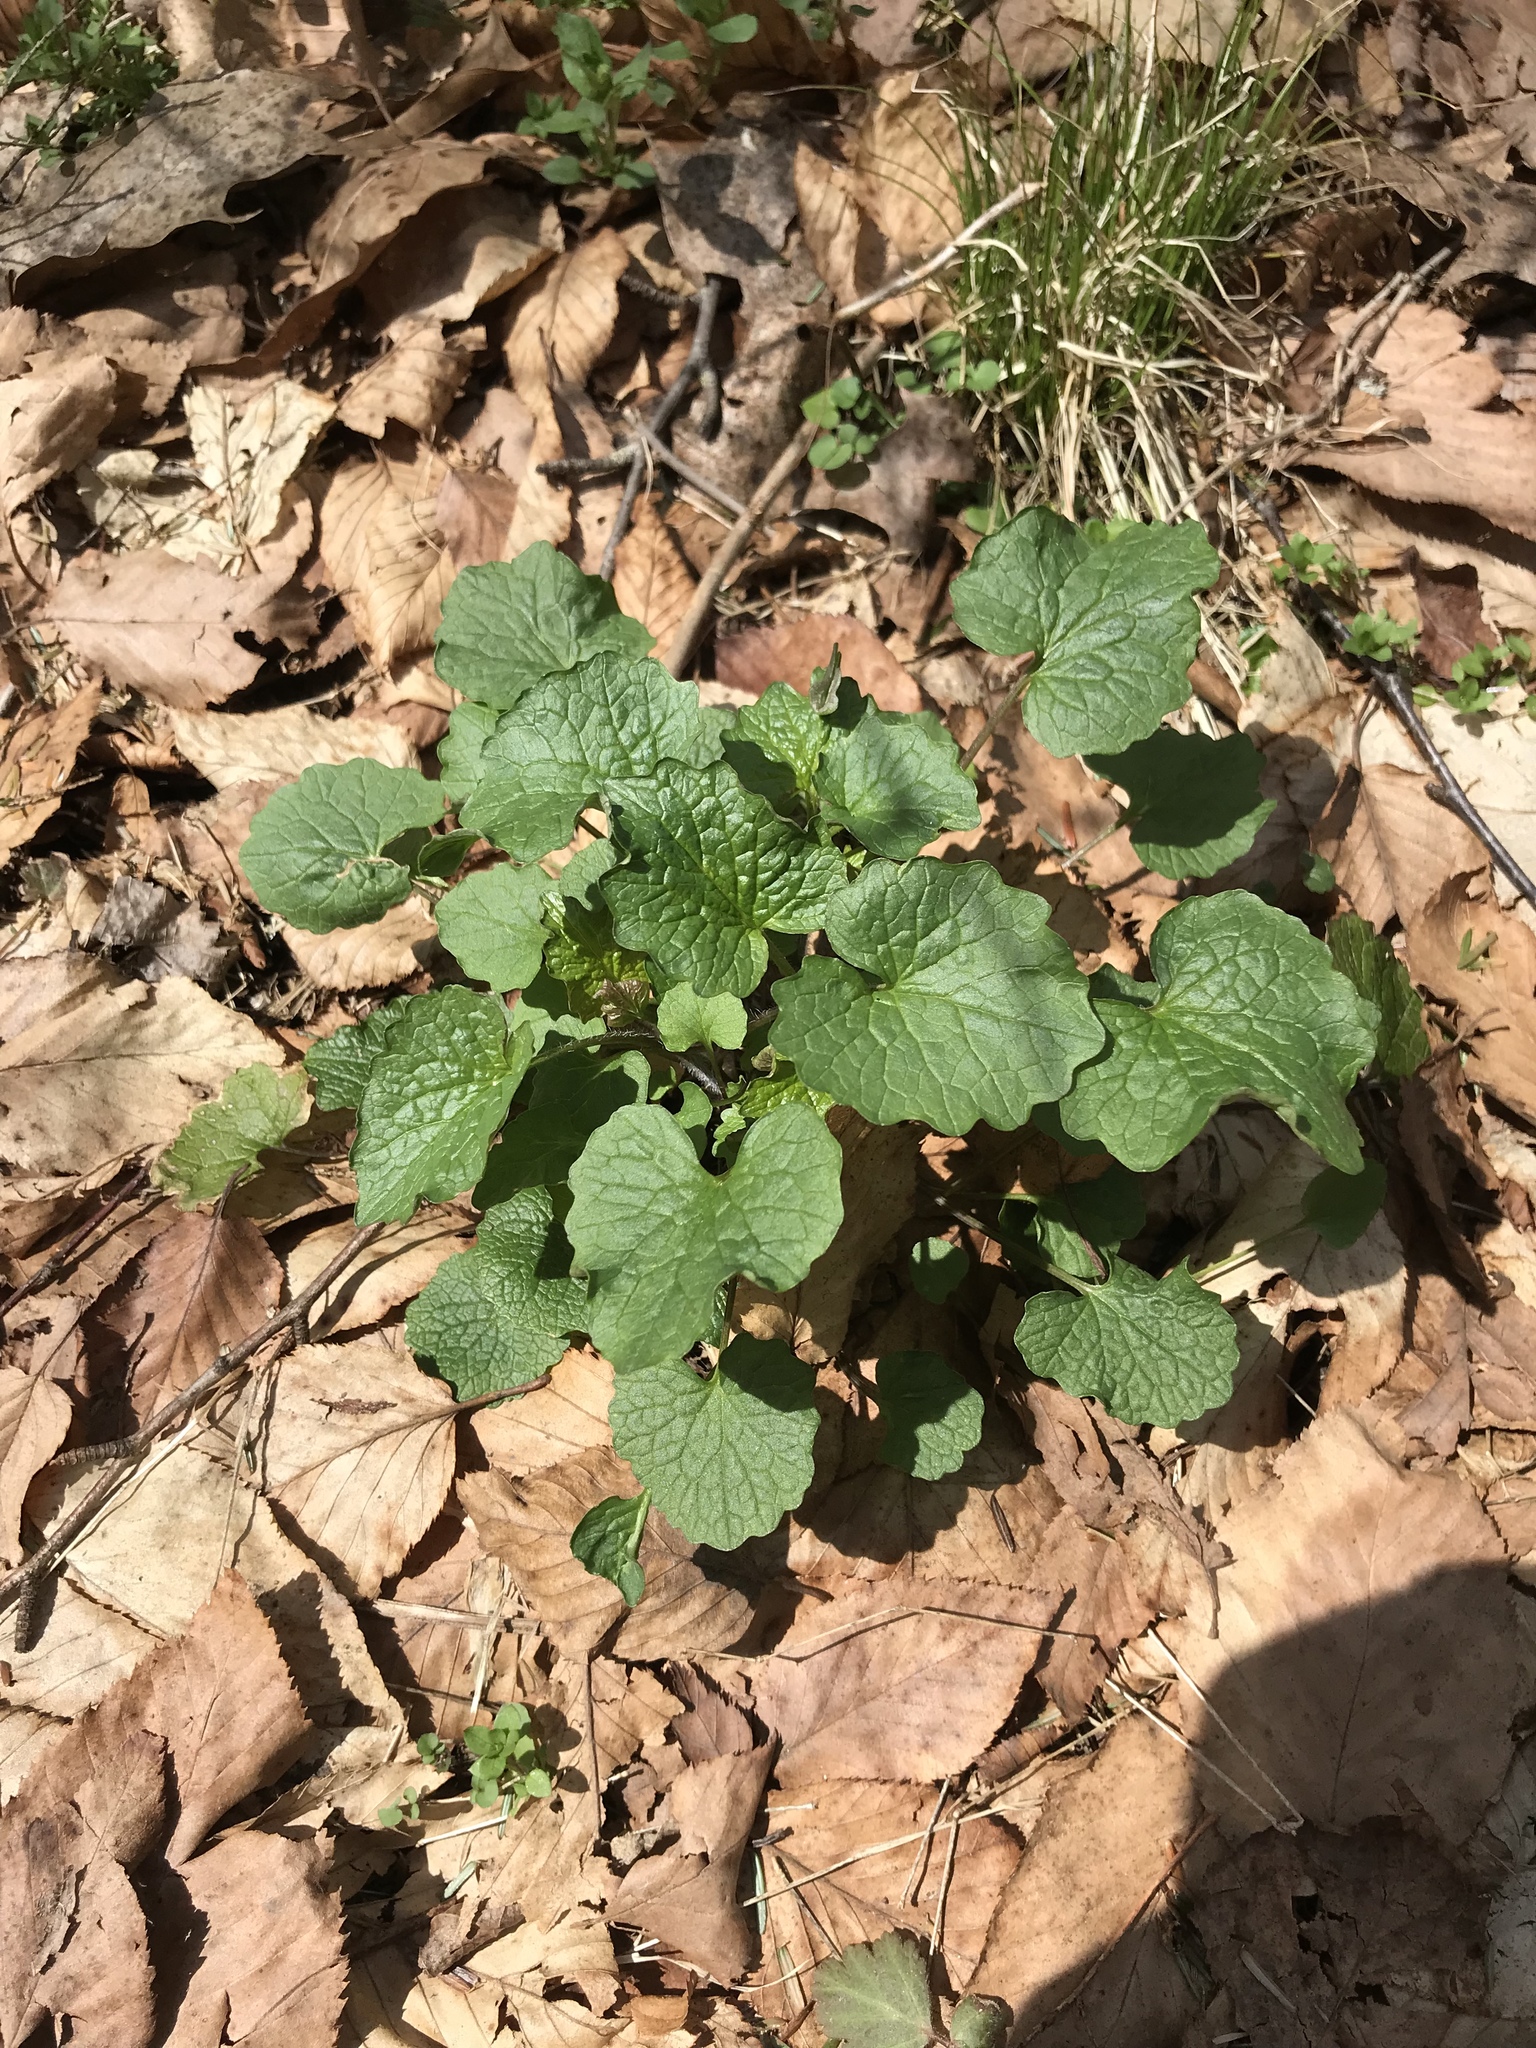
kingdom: Plantae
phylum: Tracheophyta
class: Magnoliopsida
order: Brassicales
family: Brassicaceae
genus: Alliaria
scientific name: Alliaria petiolata
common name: Garlic mustard
